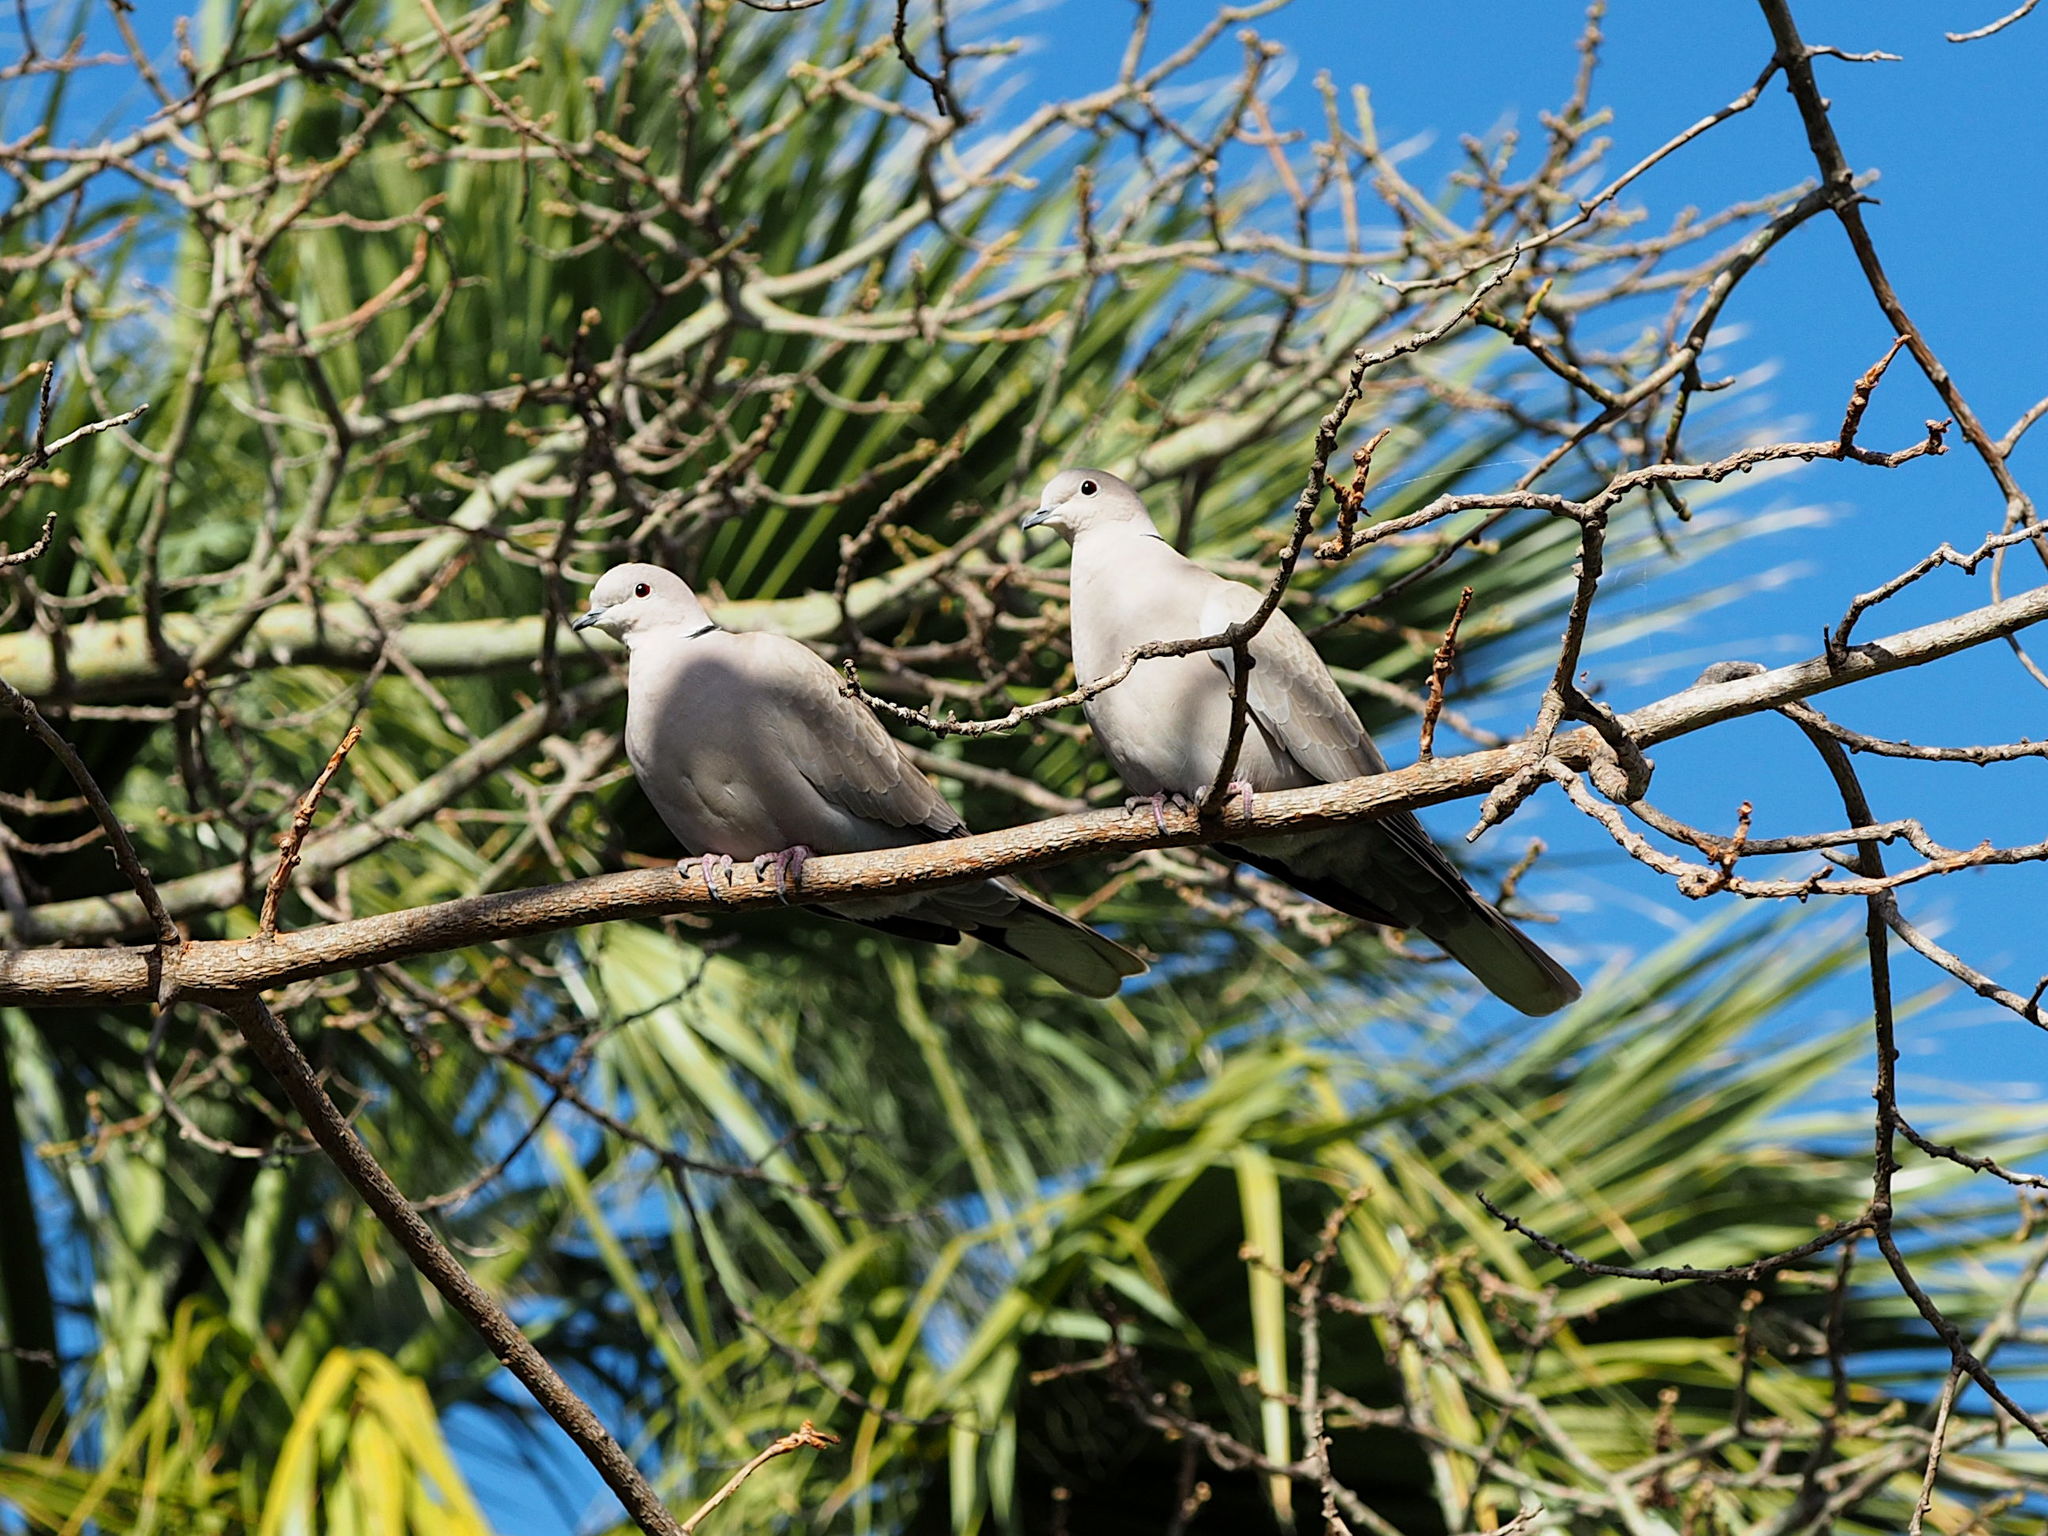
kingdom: Animalia
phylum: Chordata
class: Aves
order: Columbiformes
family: Columbidae
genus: Streptopelia
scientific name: Streptopelia decaocto
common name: Eurasian collared dove
